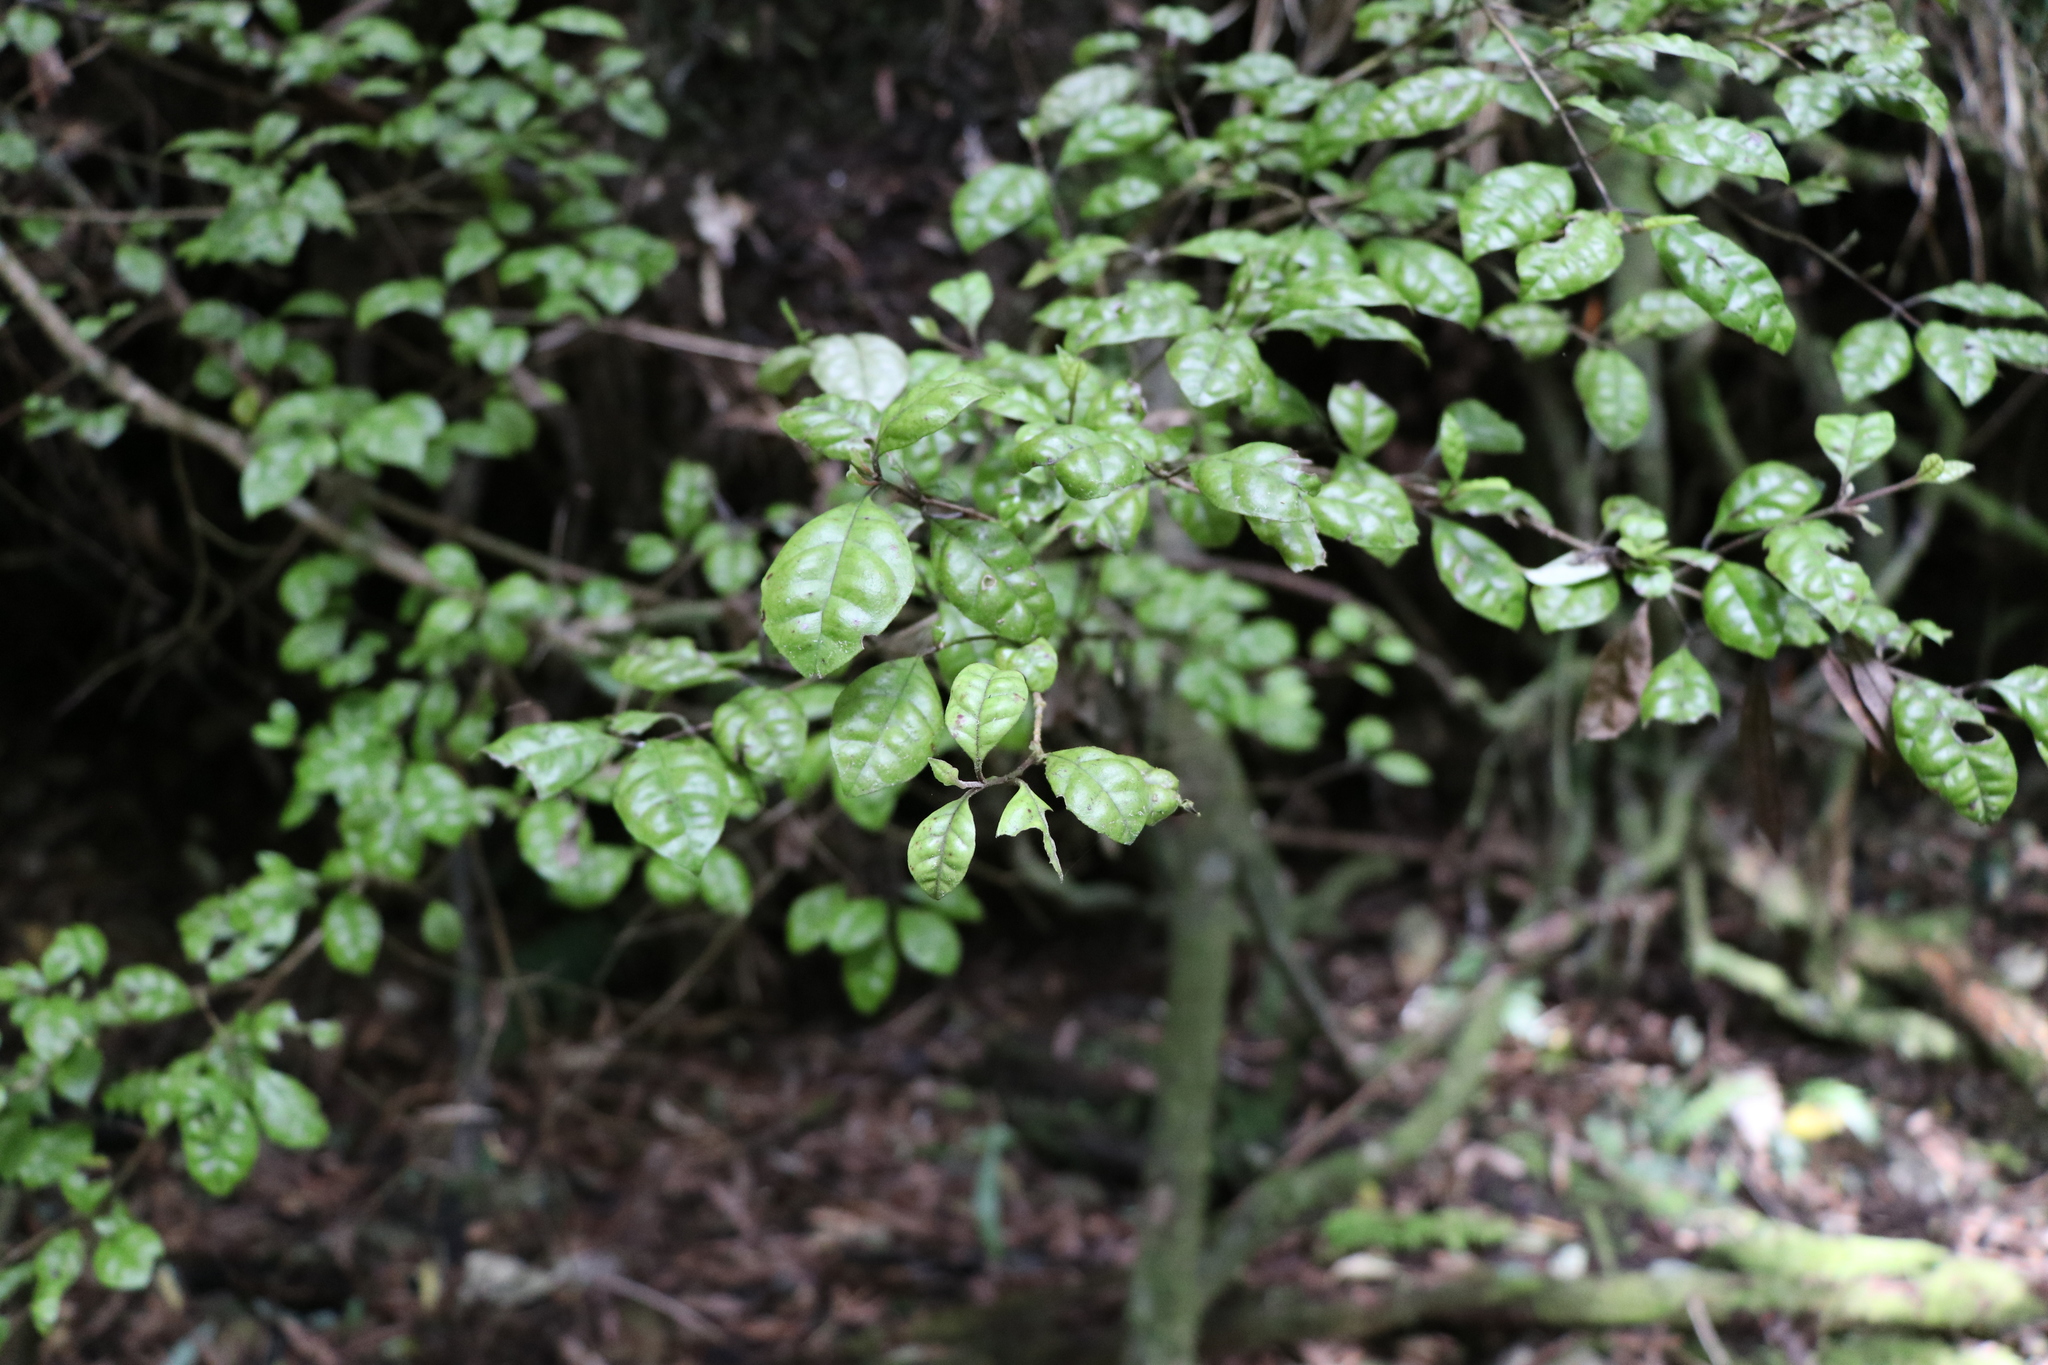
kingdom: Plantae
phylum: Tracheophyta
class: Magnoliopsida
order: Myrtales
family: Myrtaceae
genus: Lophomyrtus
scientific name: Lophomyrtus bullata
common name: Rama rama
